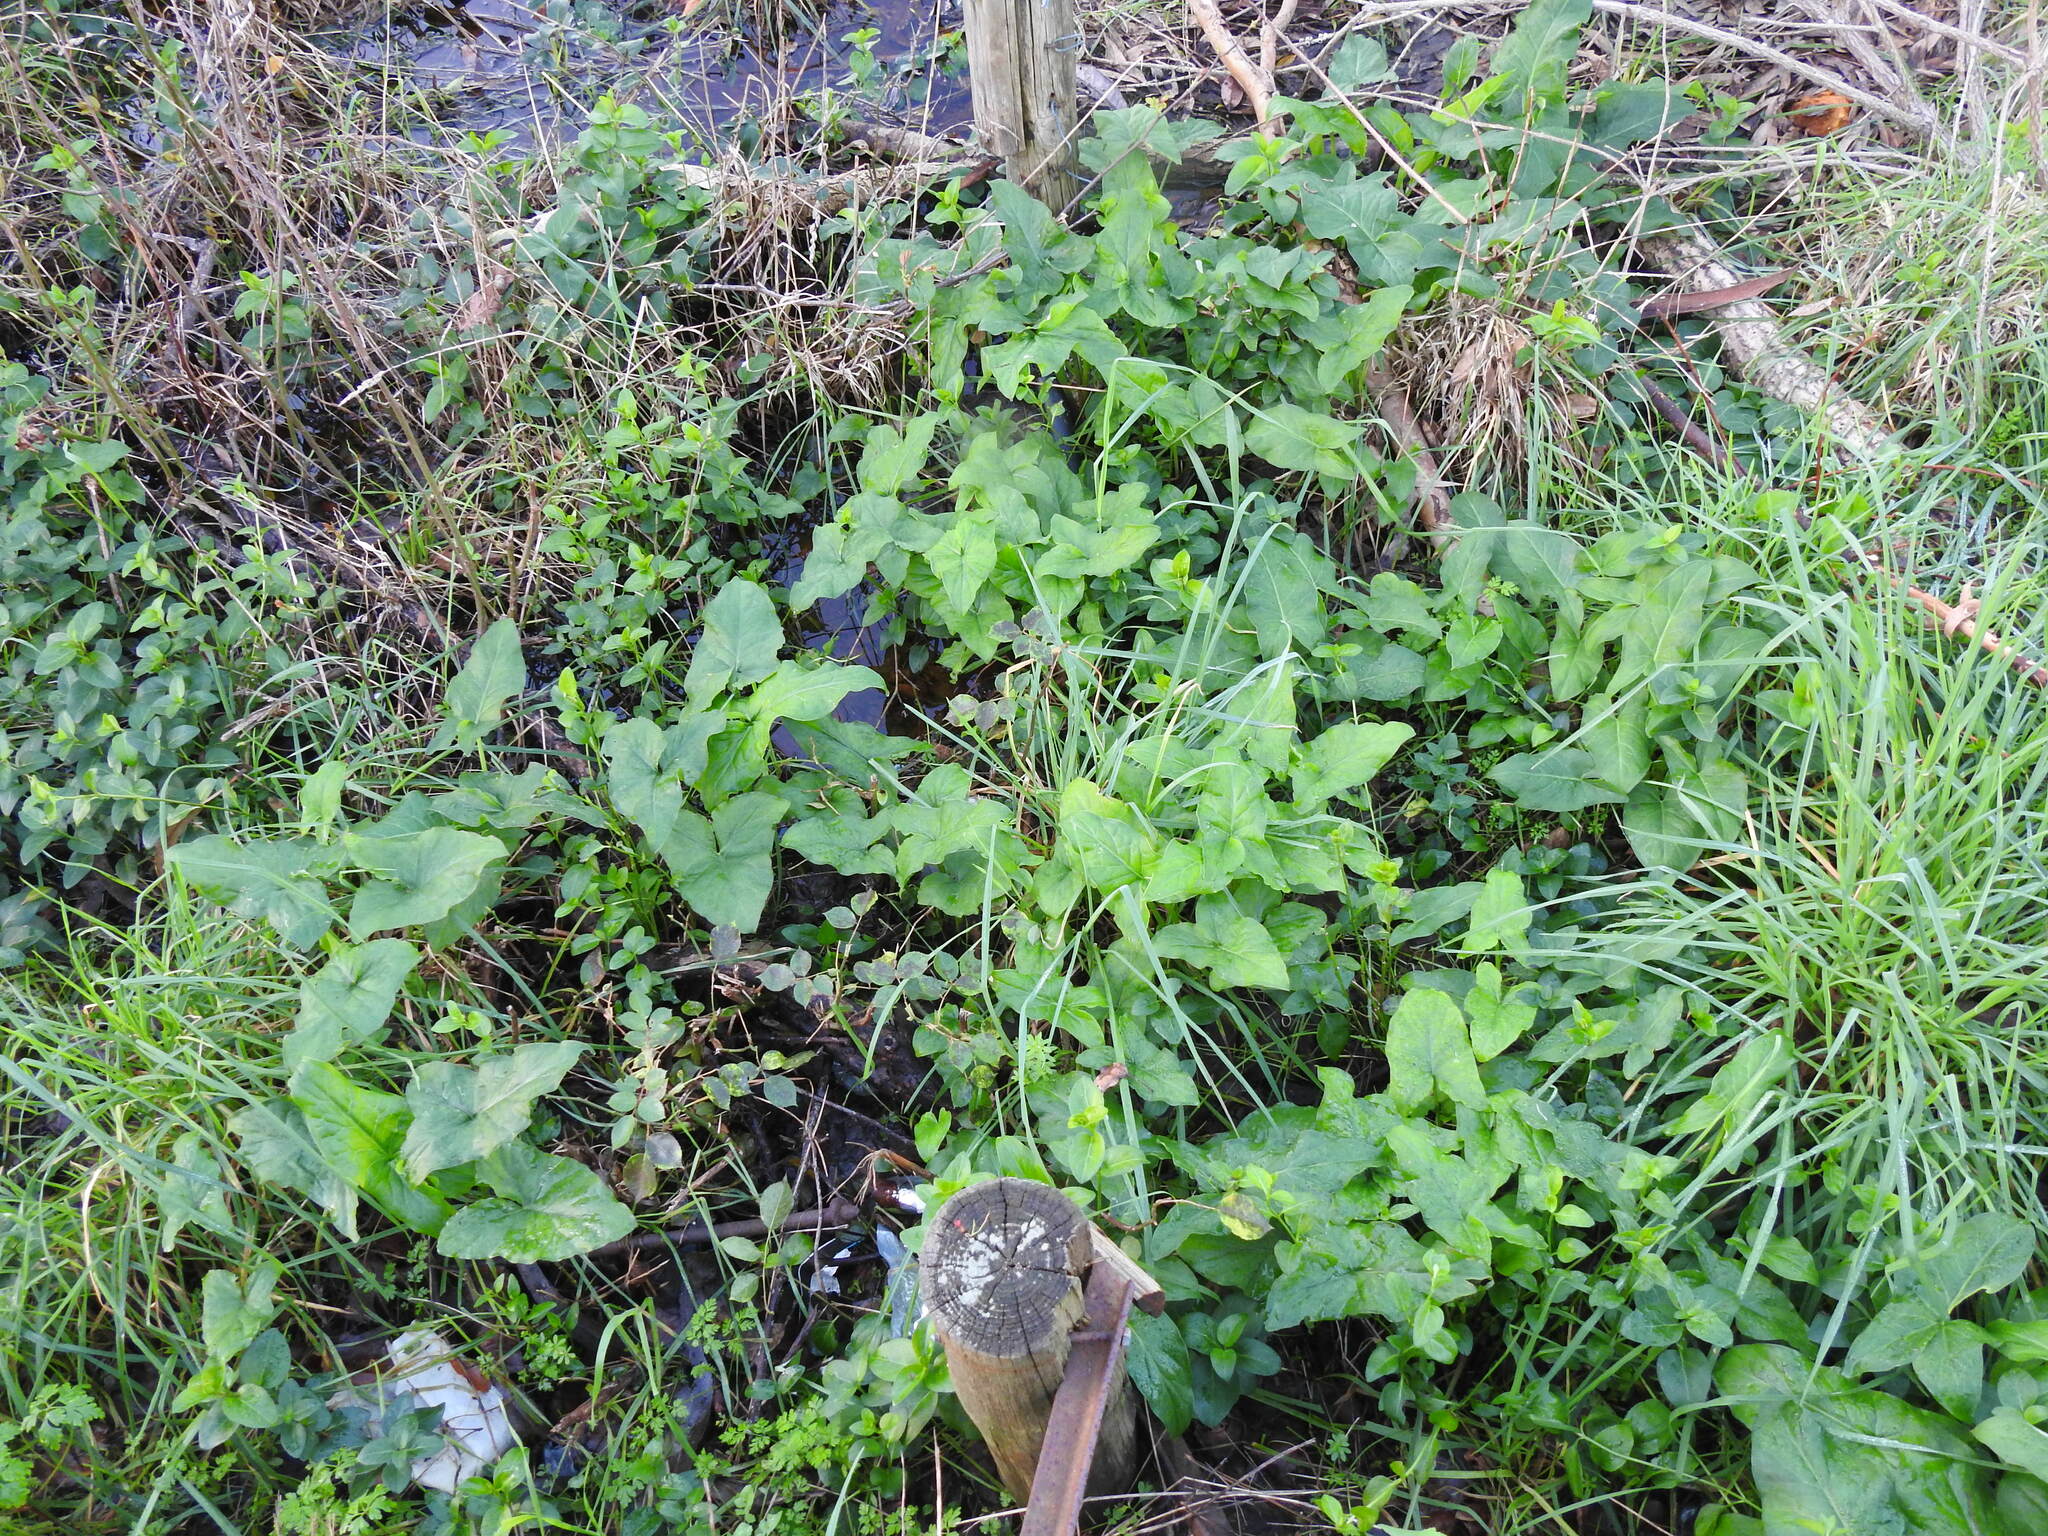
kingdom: Plantae
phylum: Tracheophyta
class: Liliopsida
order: Alismatales
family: Araceae
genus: Arum
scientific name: Arum italicum
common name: Italian lords-and-ladies
